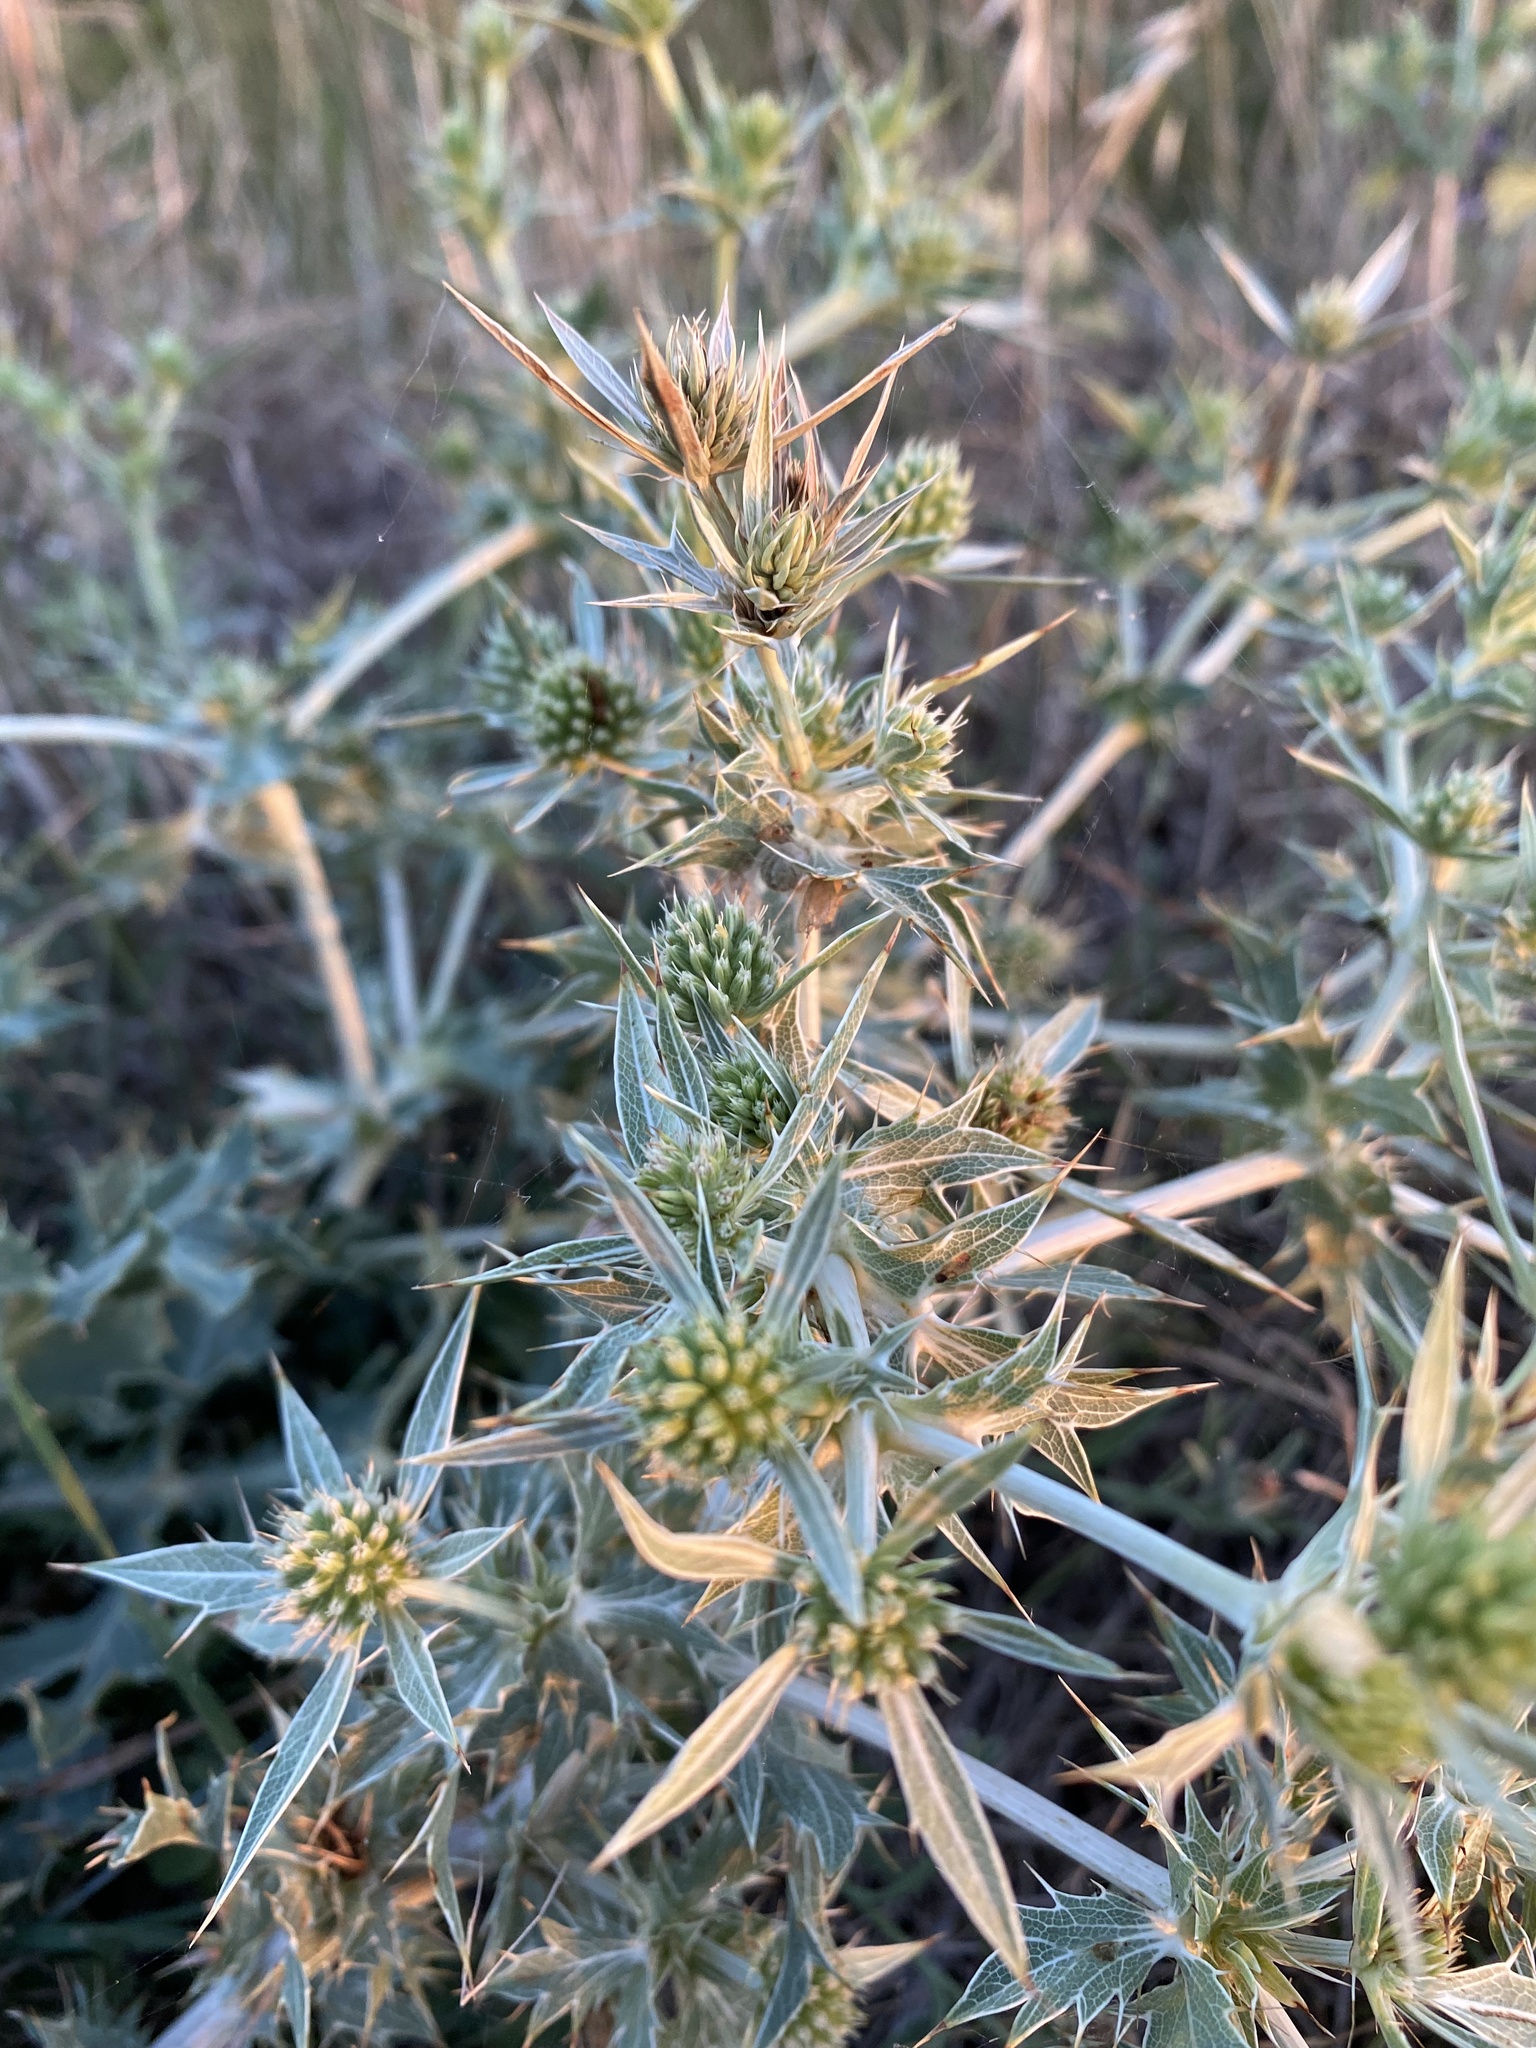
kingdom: Plantae
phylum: Tracheophyta
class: Magnoliopsida
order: Apiales
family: Apiaceae
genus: Eryngium
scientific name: Eryngium campestre
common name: Field eryngo
